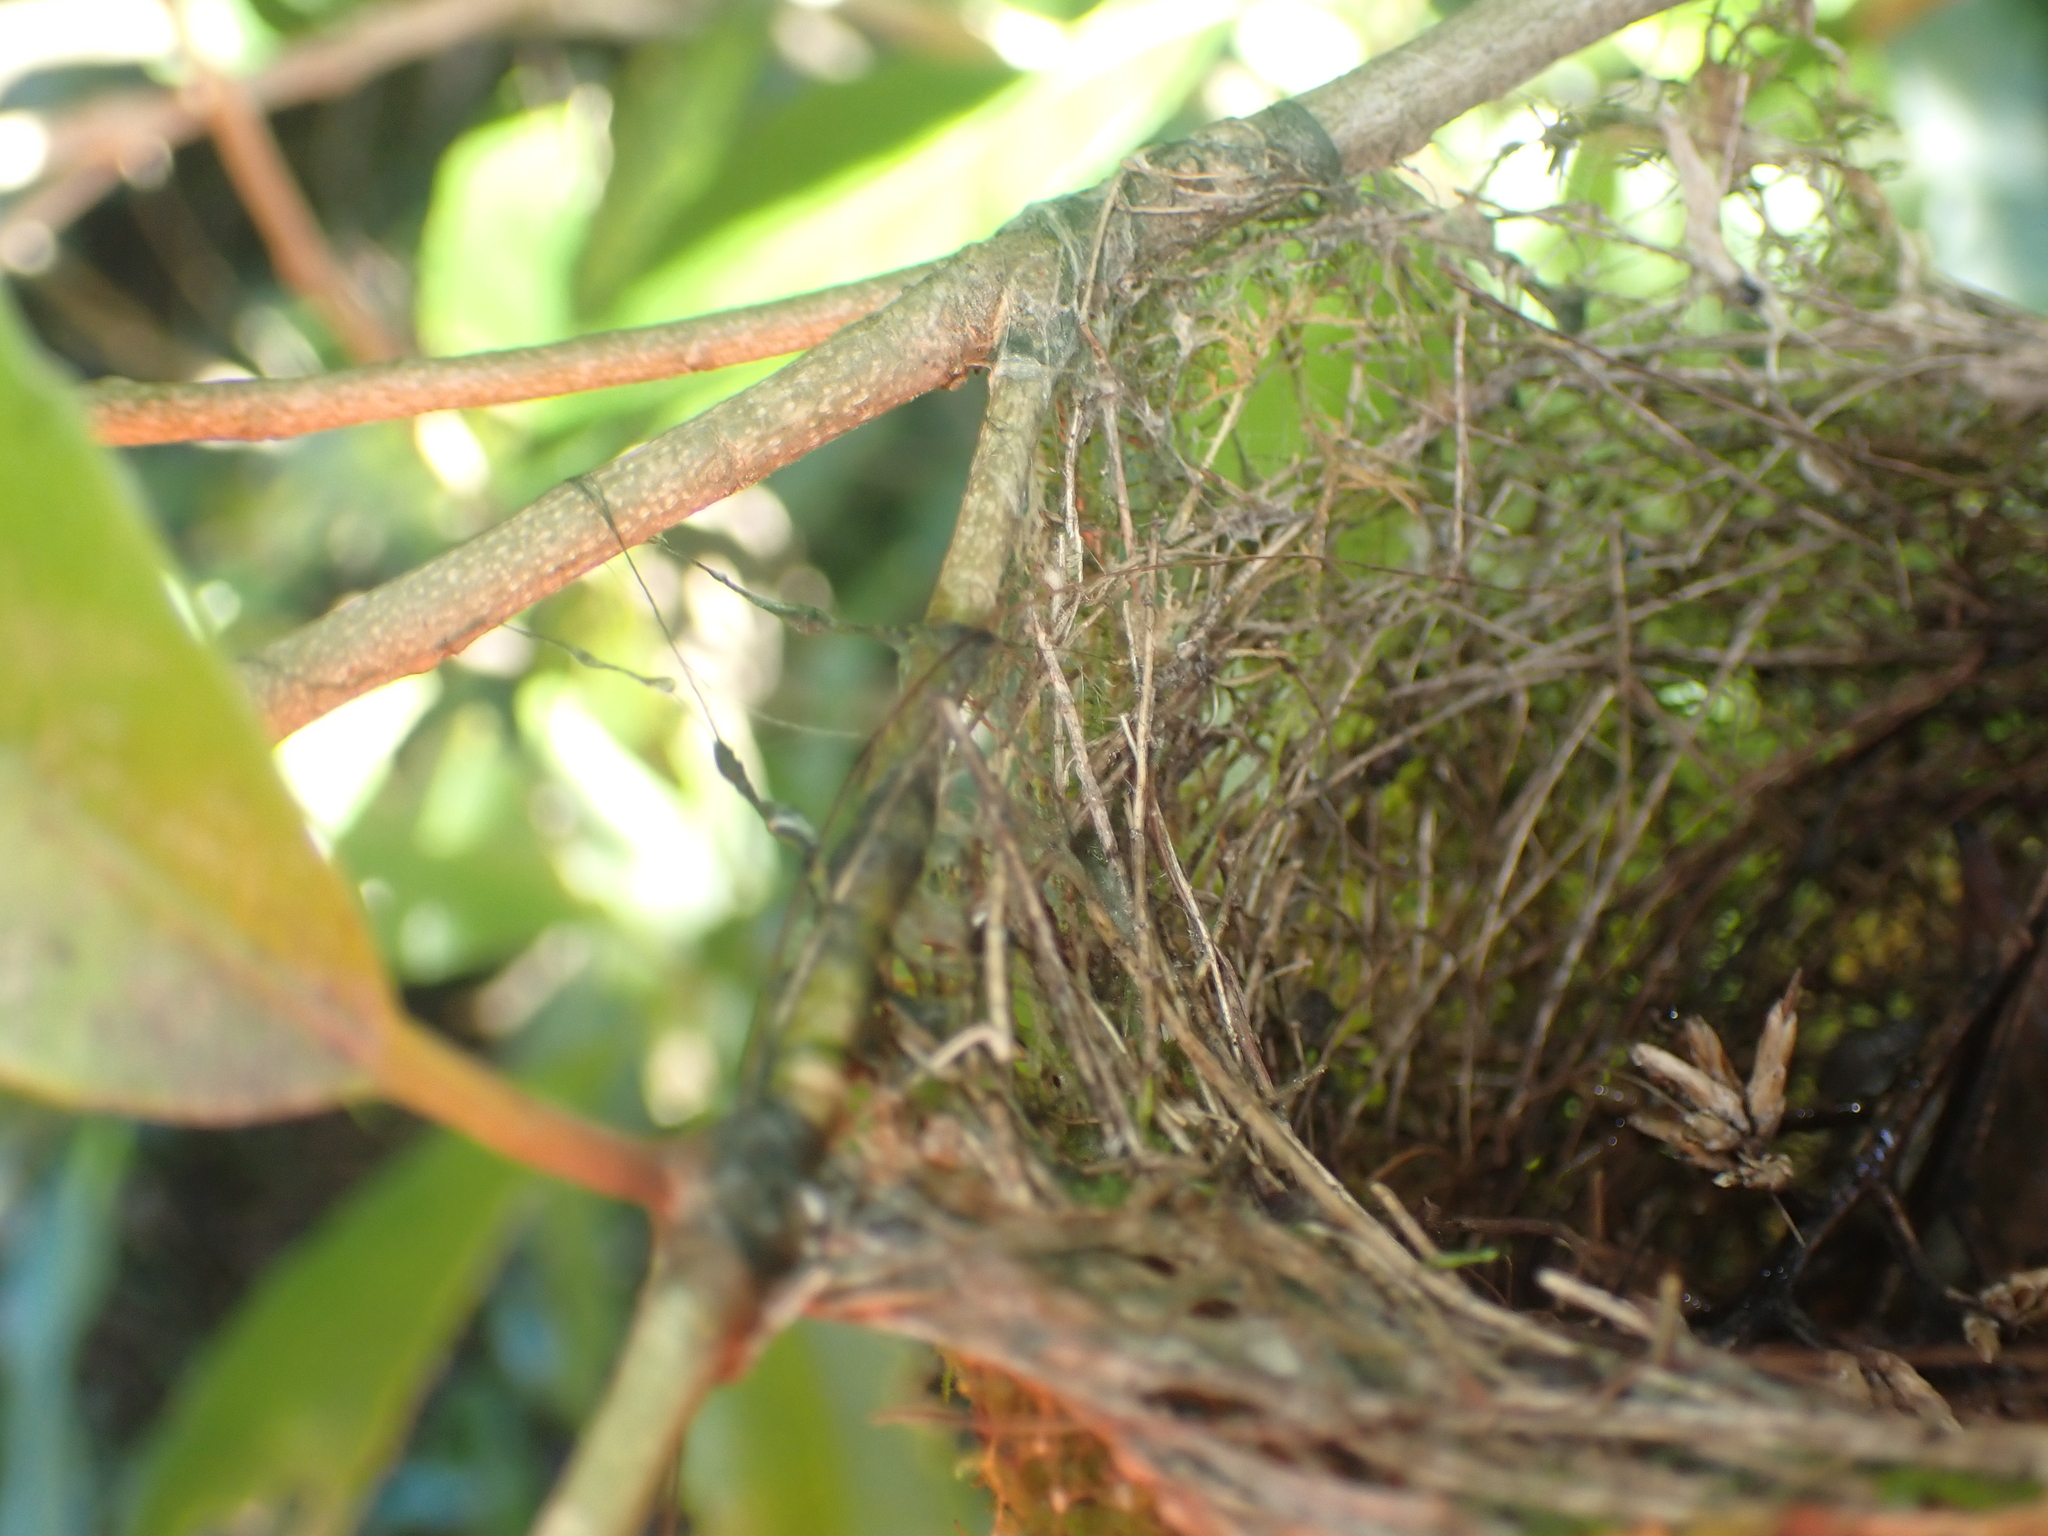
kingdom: Animalia
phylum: Chordata
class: Aves
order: Passeriformes
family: Zosteropidae
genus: Zosterops
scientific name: Zosterops lateralis
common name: Silvereye
